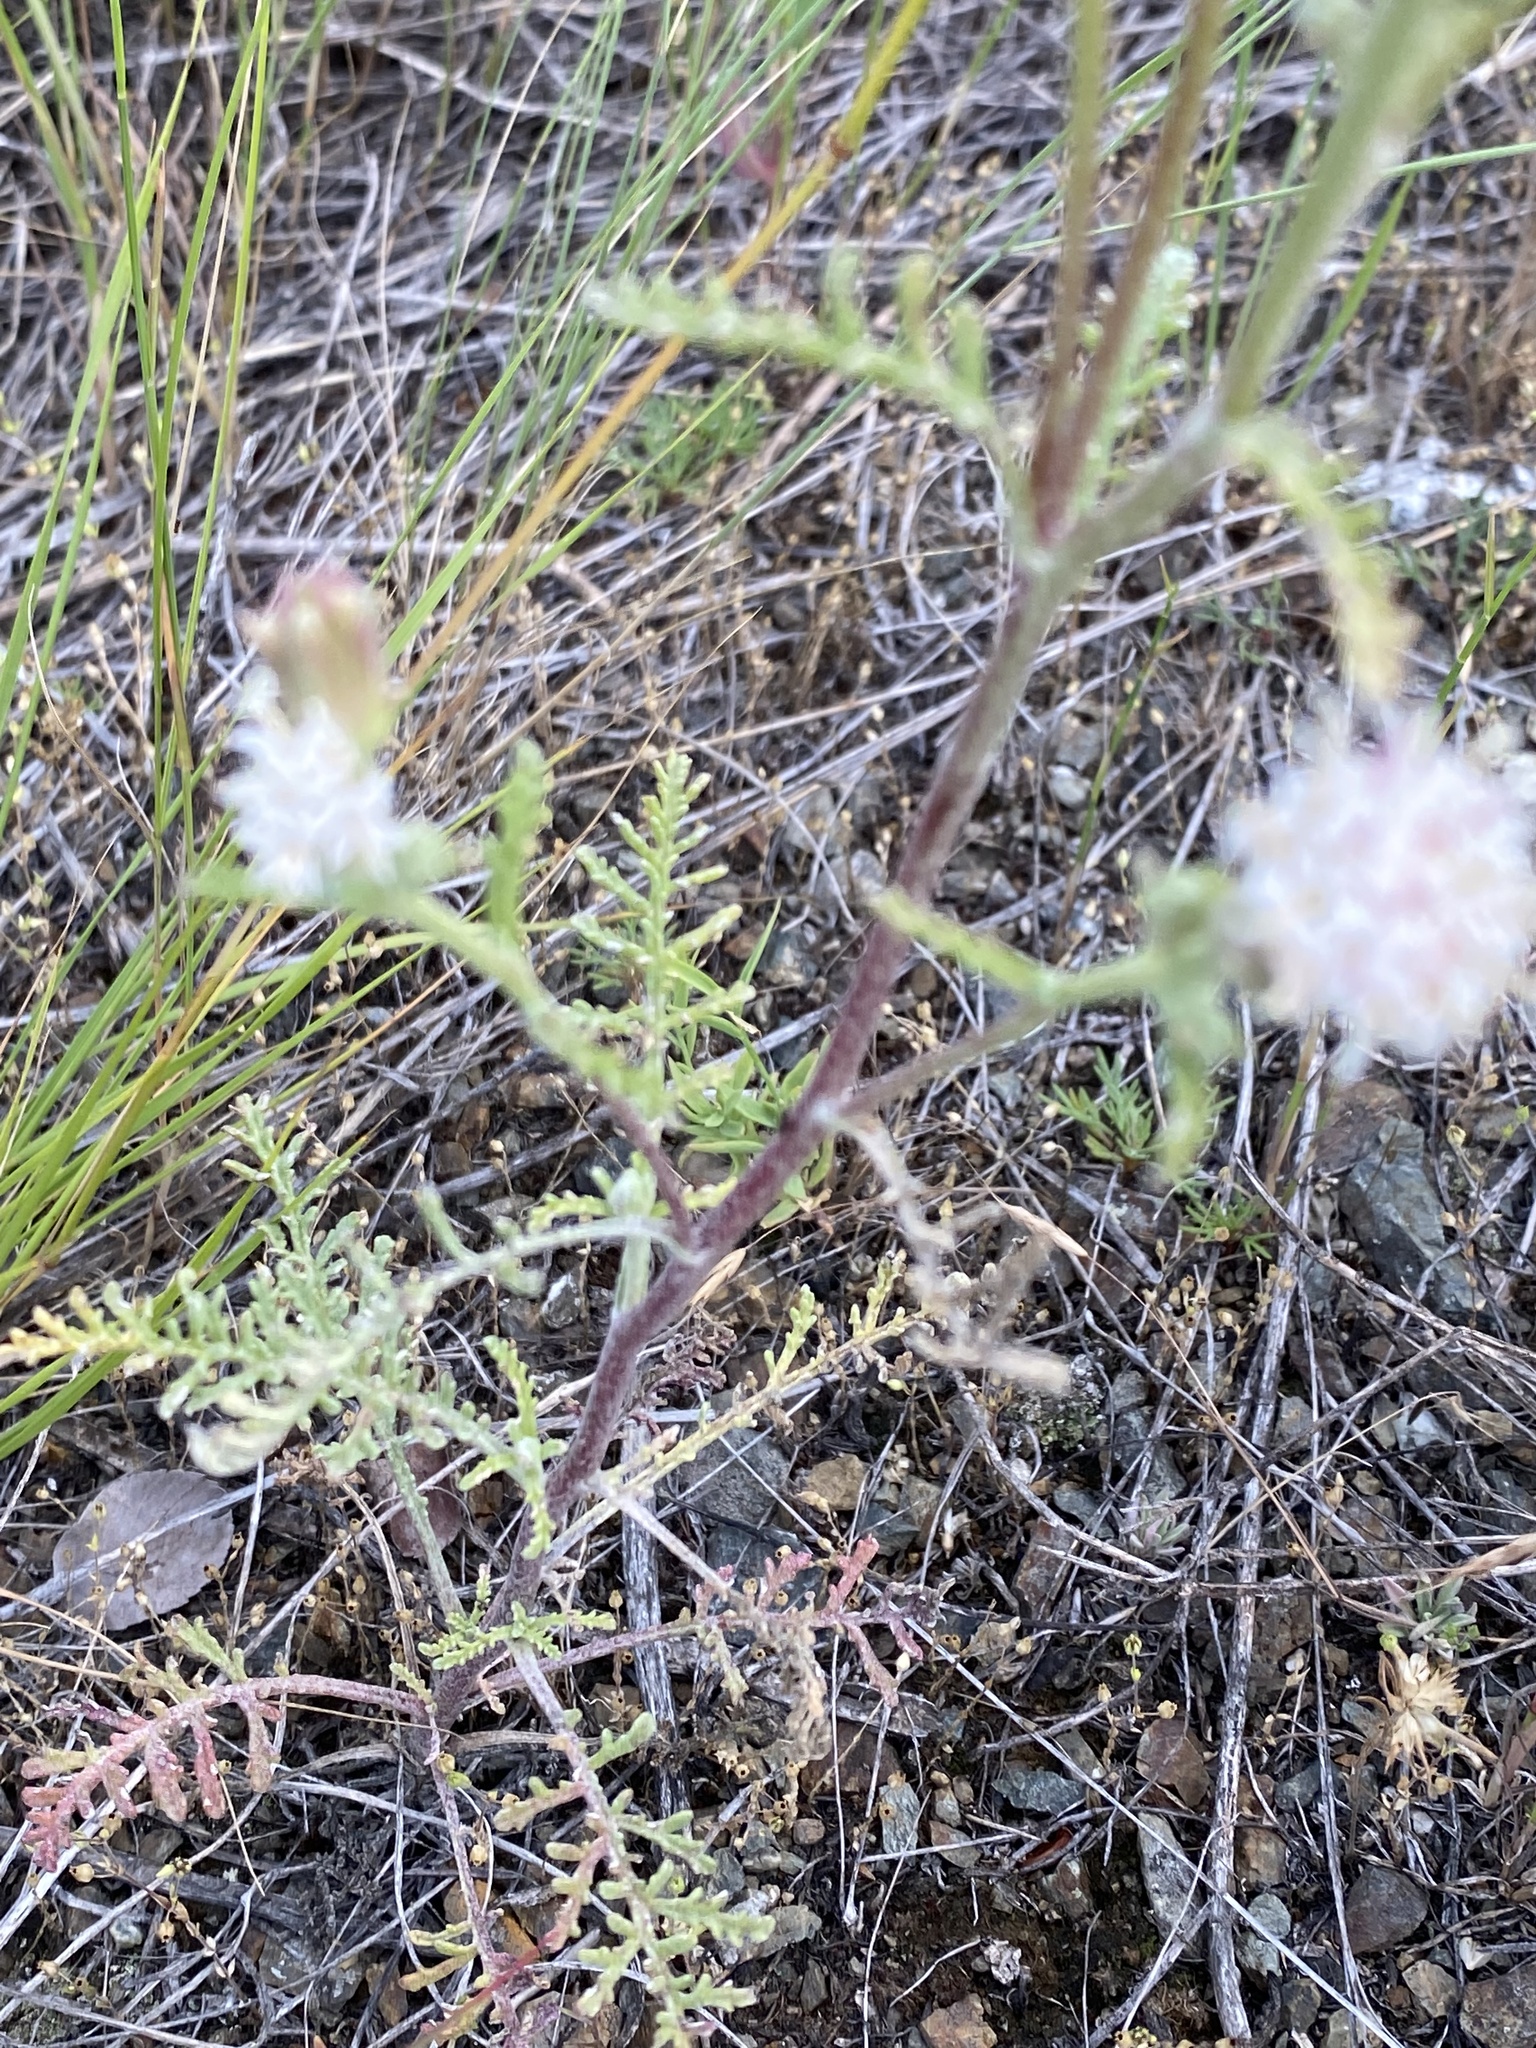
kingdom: Plantae
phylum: Tracheophyta
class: Magnoliopsida
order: Asterales
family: Asteraceae
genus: Chaenactis
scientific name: Chaenactis douglasii
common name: Hoary pincushion
